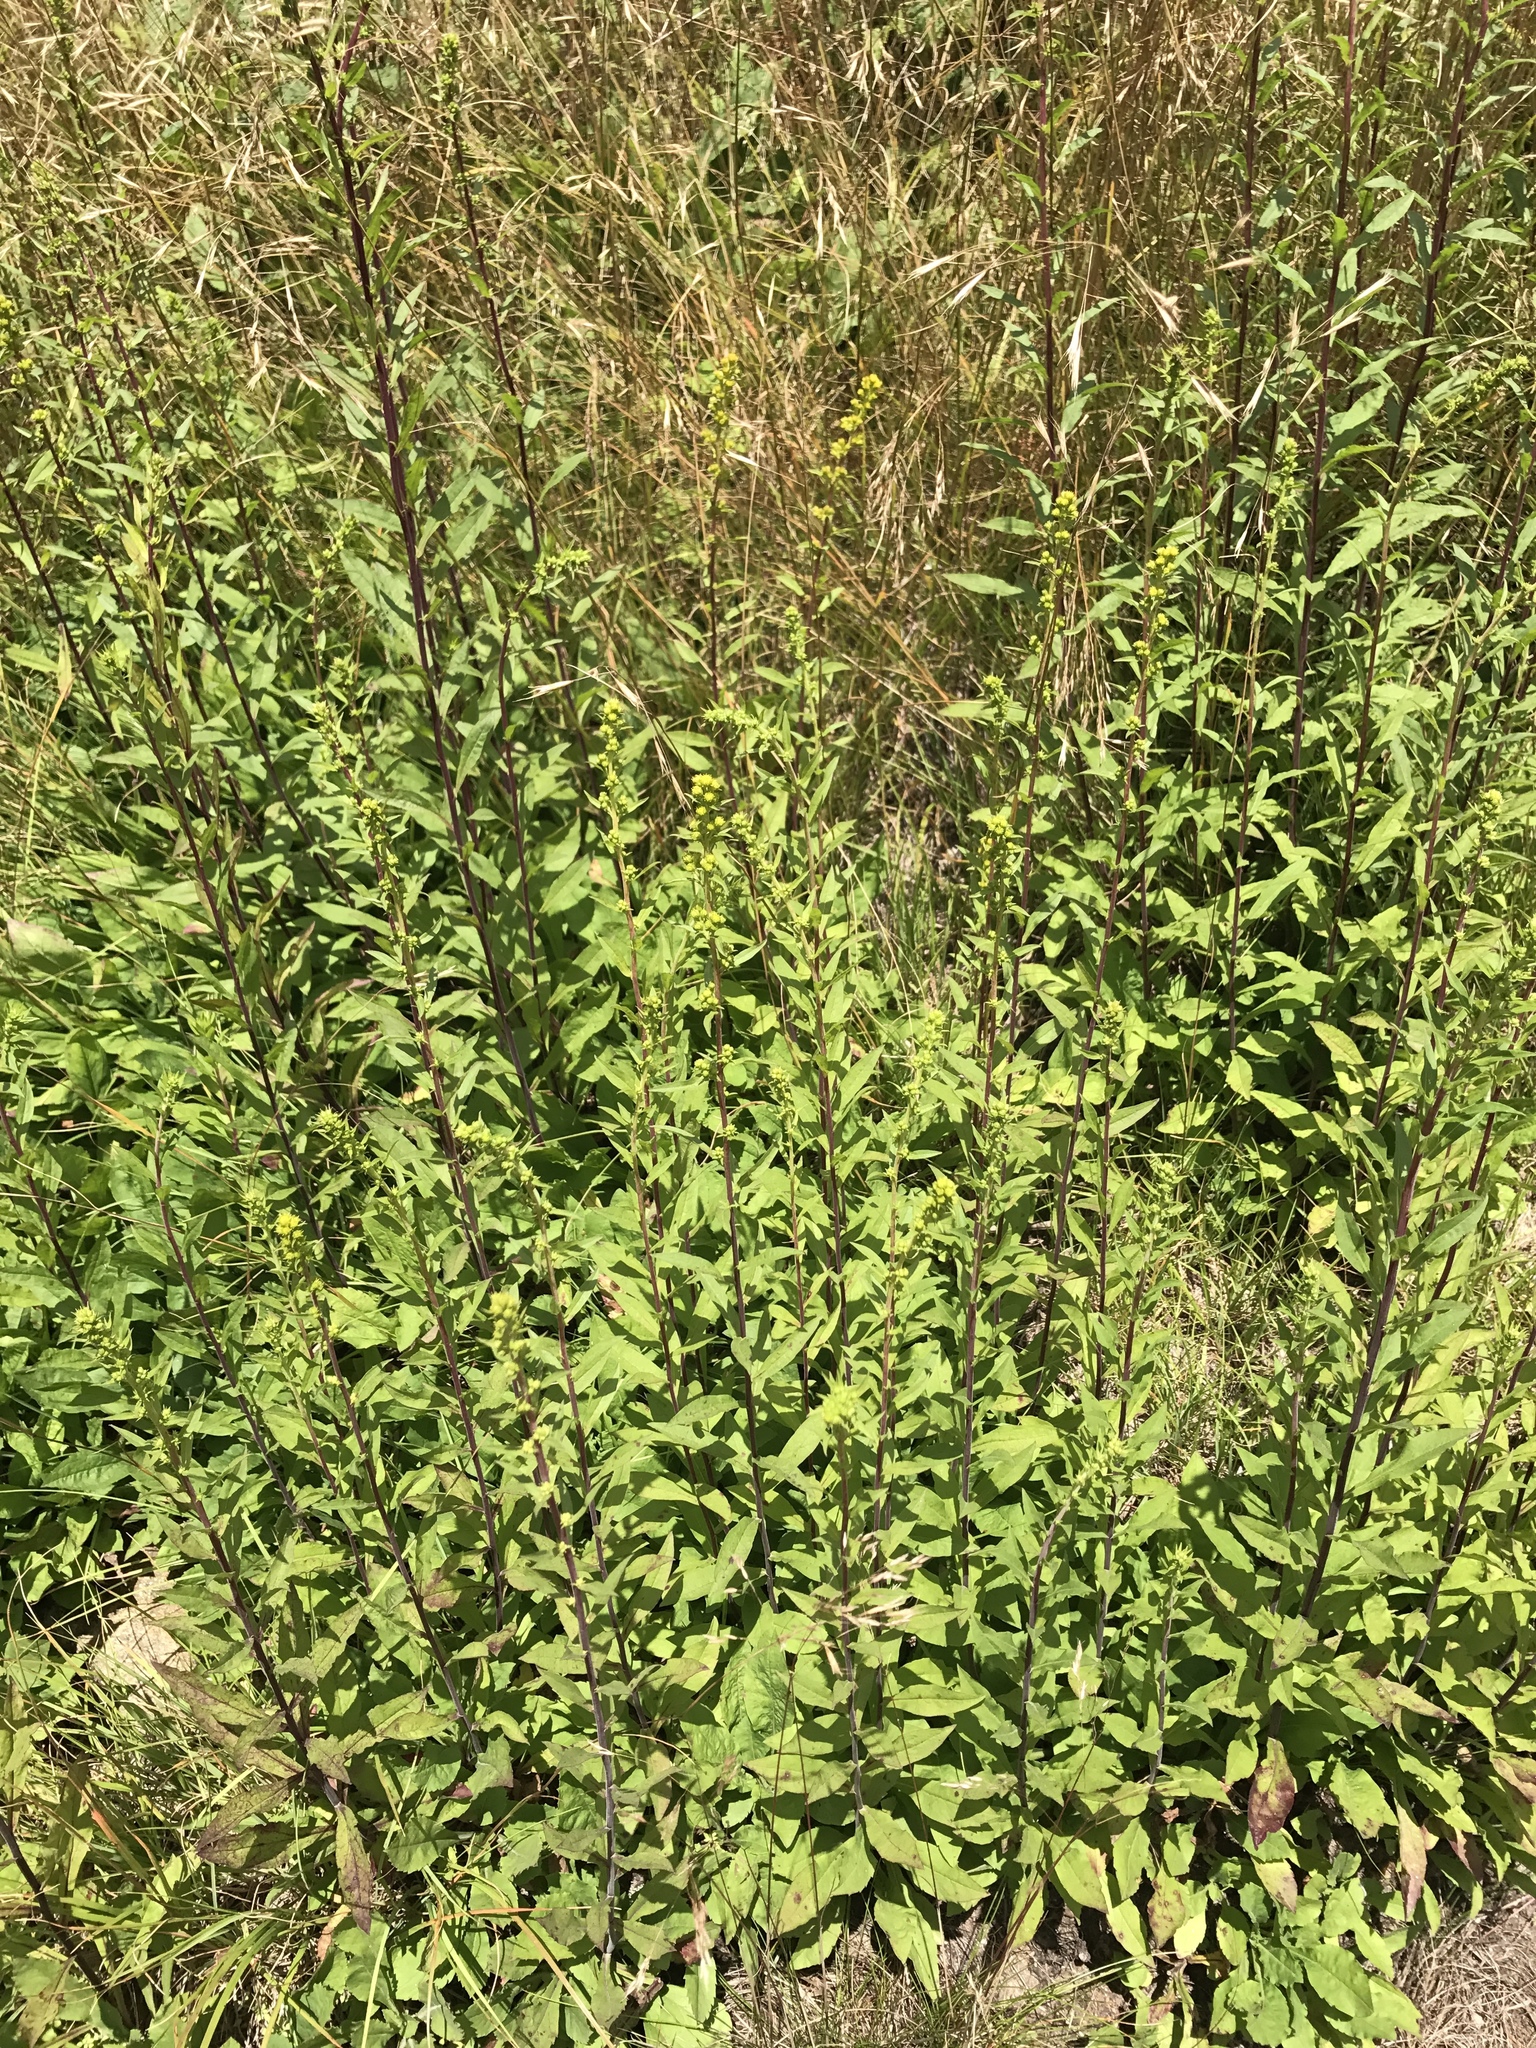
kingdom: Plantae
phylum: Tracheophyta
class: Magnoliopsida
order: Asterales
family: Asteraceae
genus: Solidago
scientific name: Solidago roanensis
